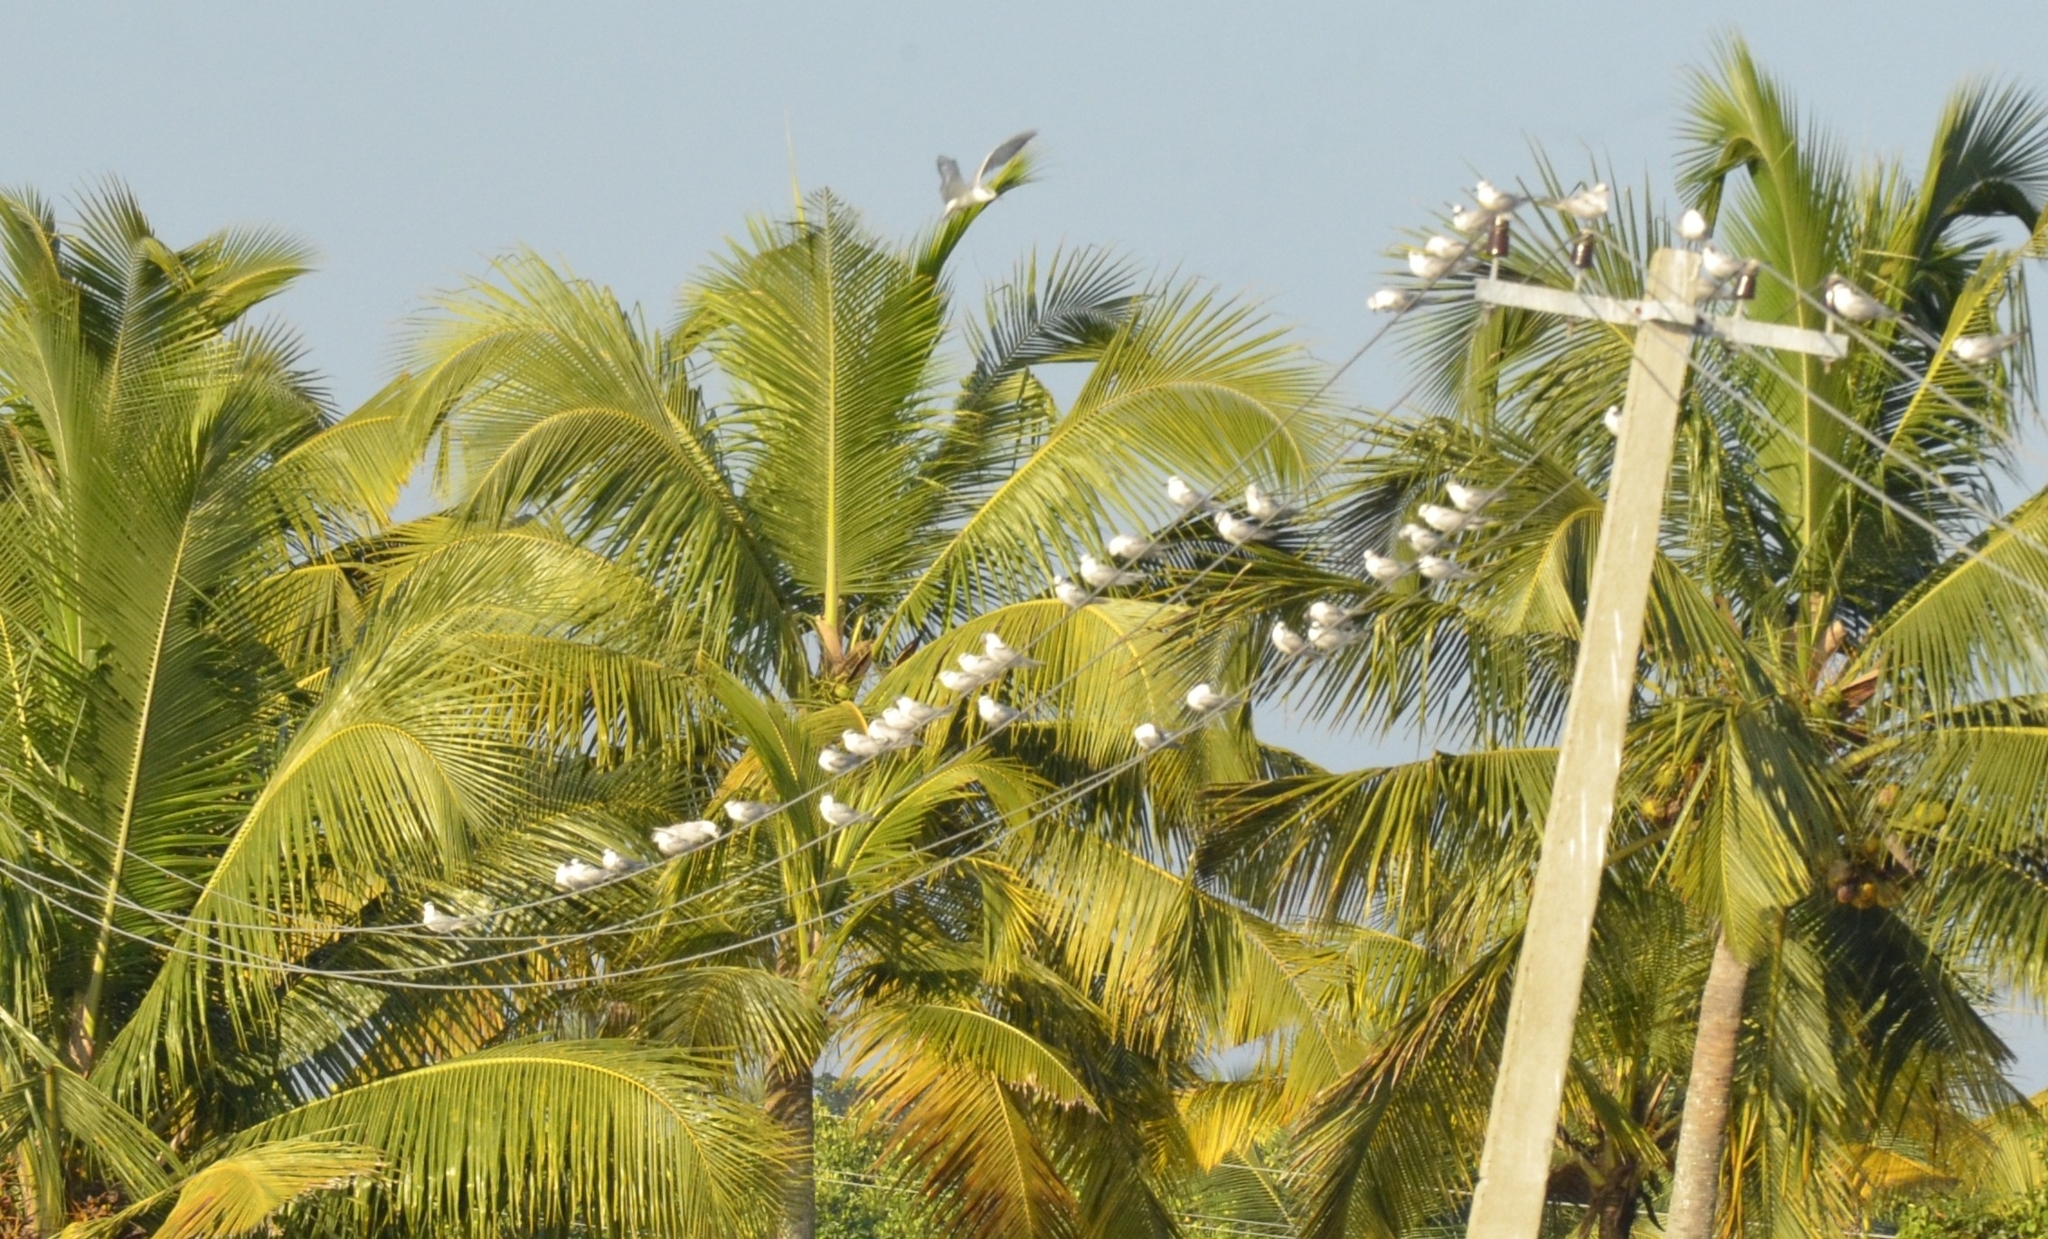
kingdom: Animalia
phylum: Chordata
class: Aves
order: Charadriiformes
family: Laridae
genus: Chlidonias
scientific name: Chlidonias hybrida
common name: Whiskered tern
